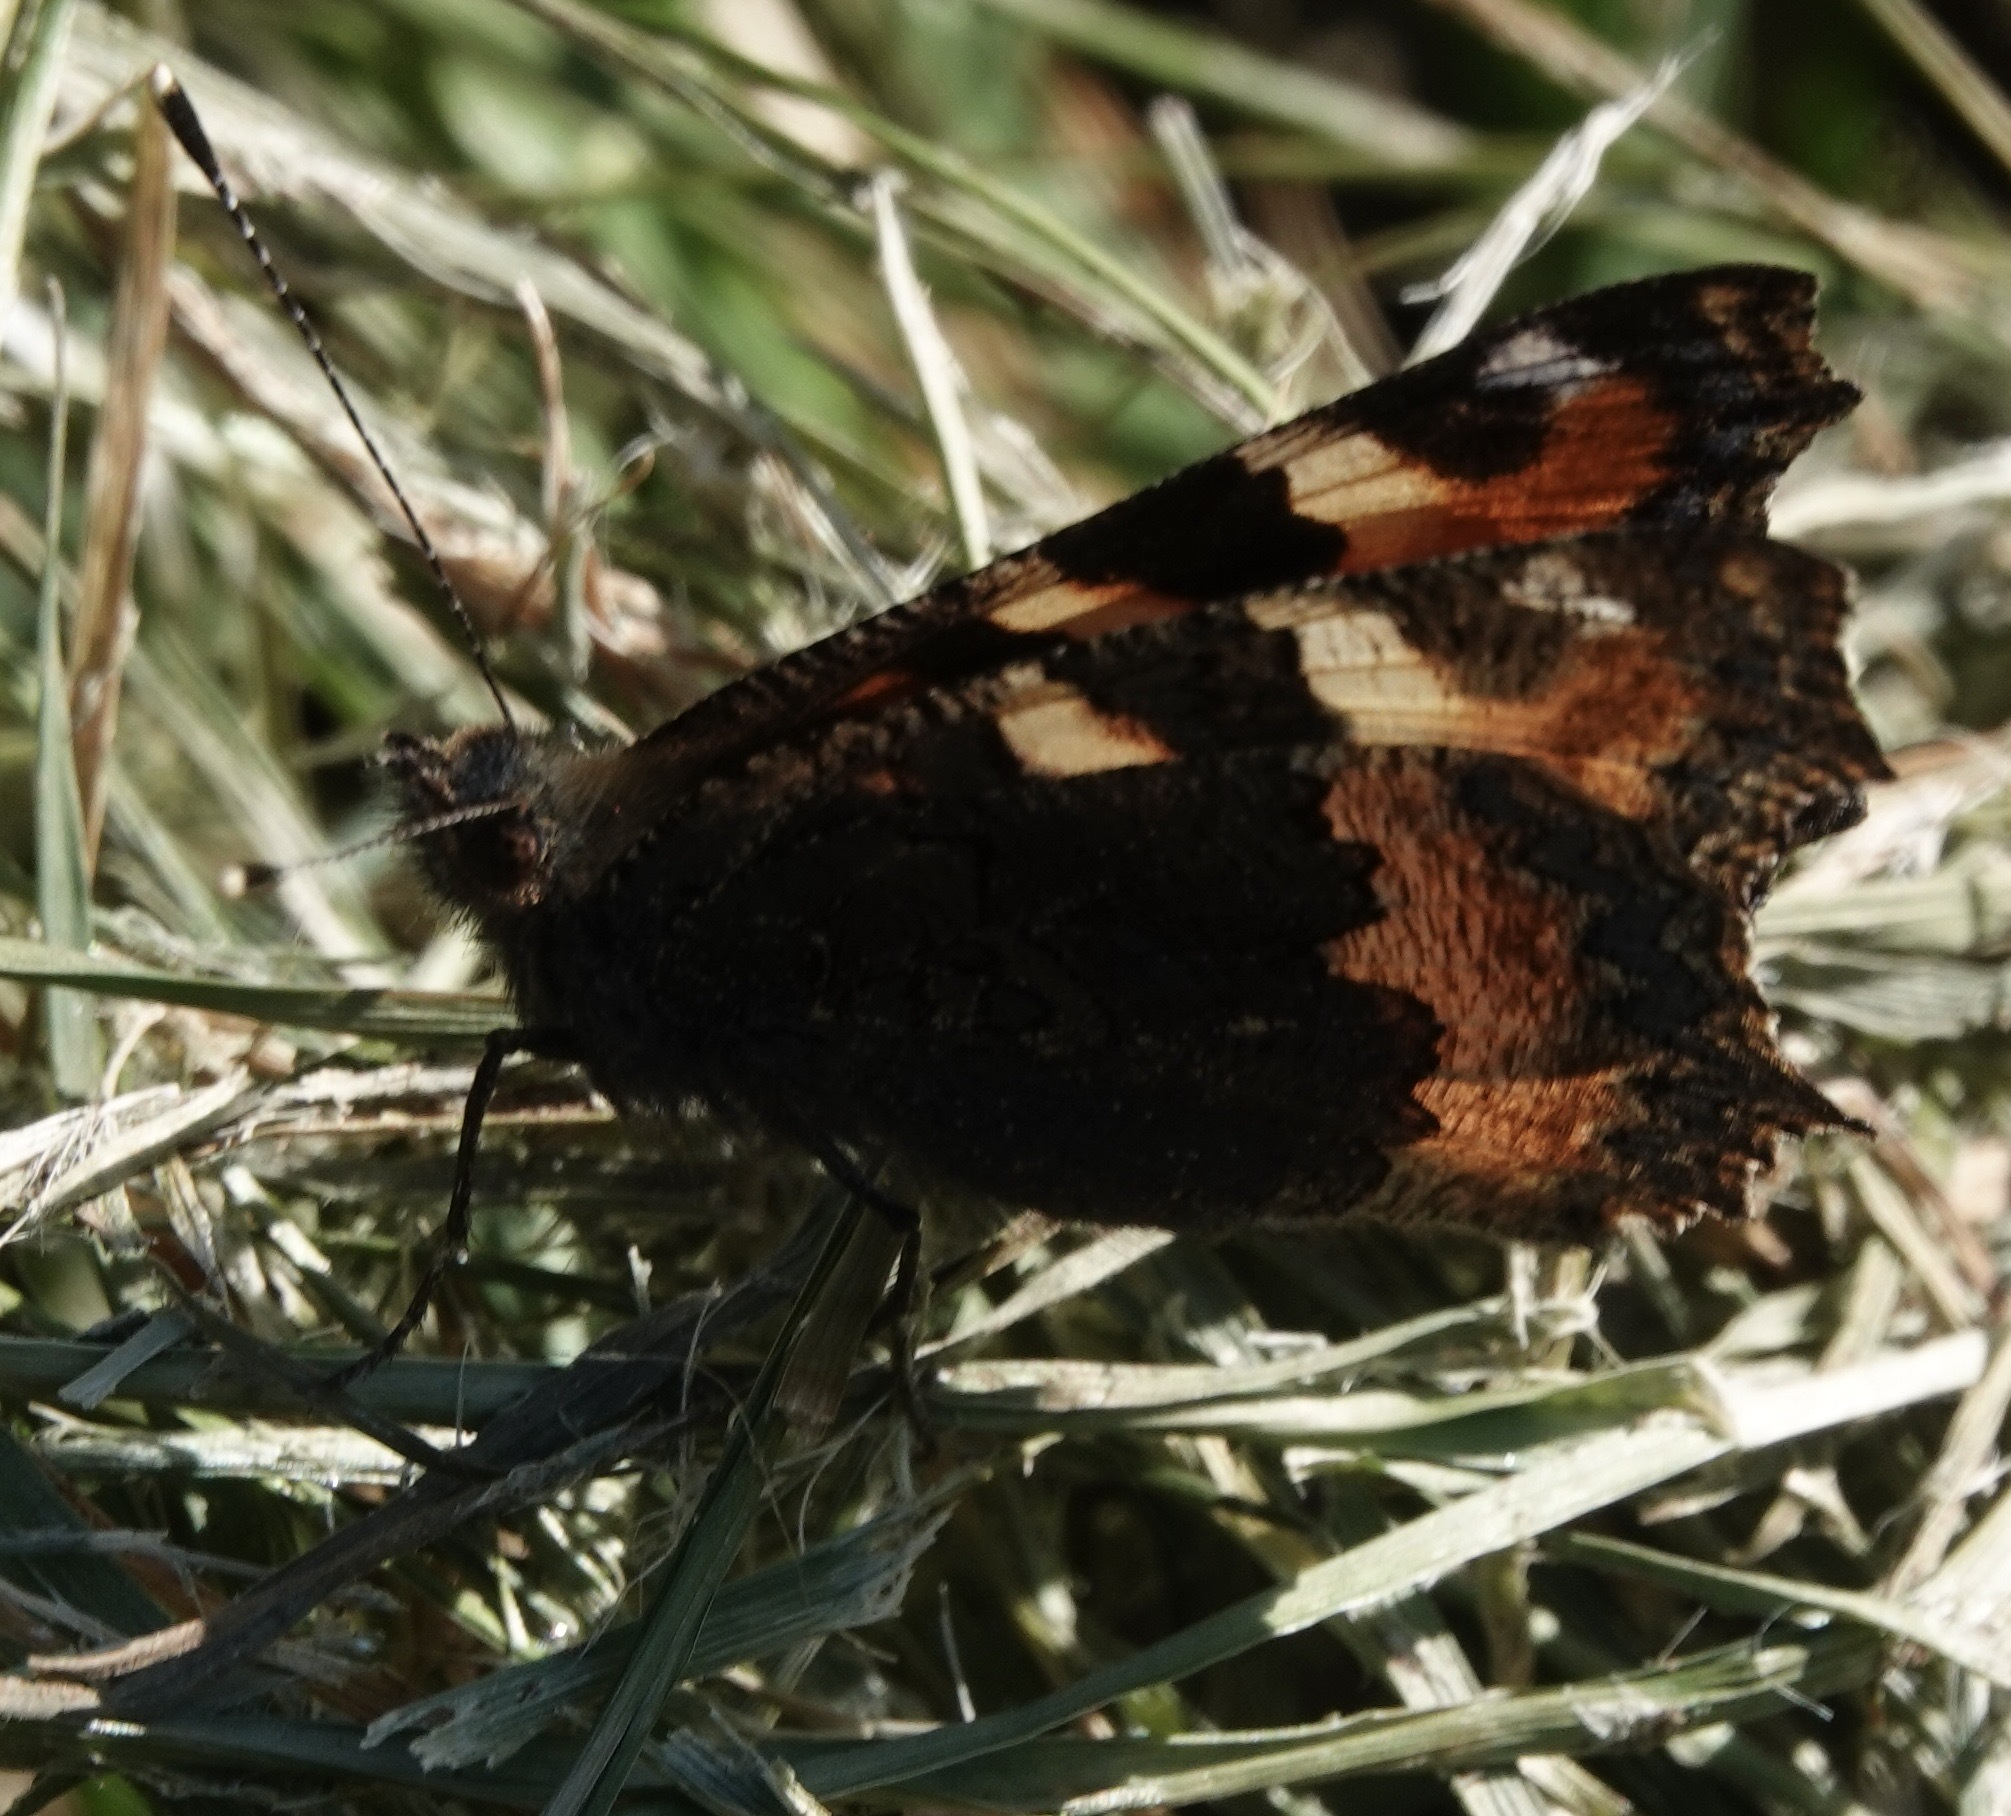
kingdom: Animalia
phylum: Arthropoda
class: Insecta
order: Lepidoptera
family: Nymphalidae
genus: Aglais
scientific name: Aglais urticae
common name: Small tortoiseshell
